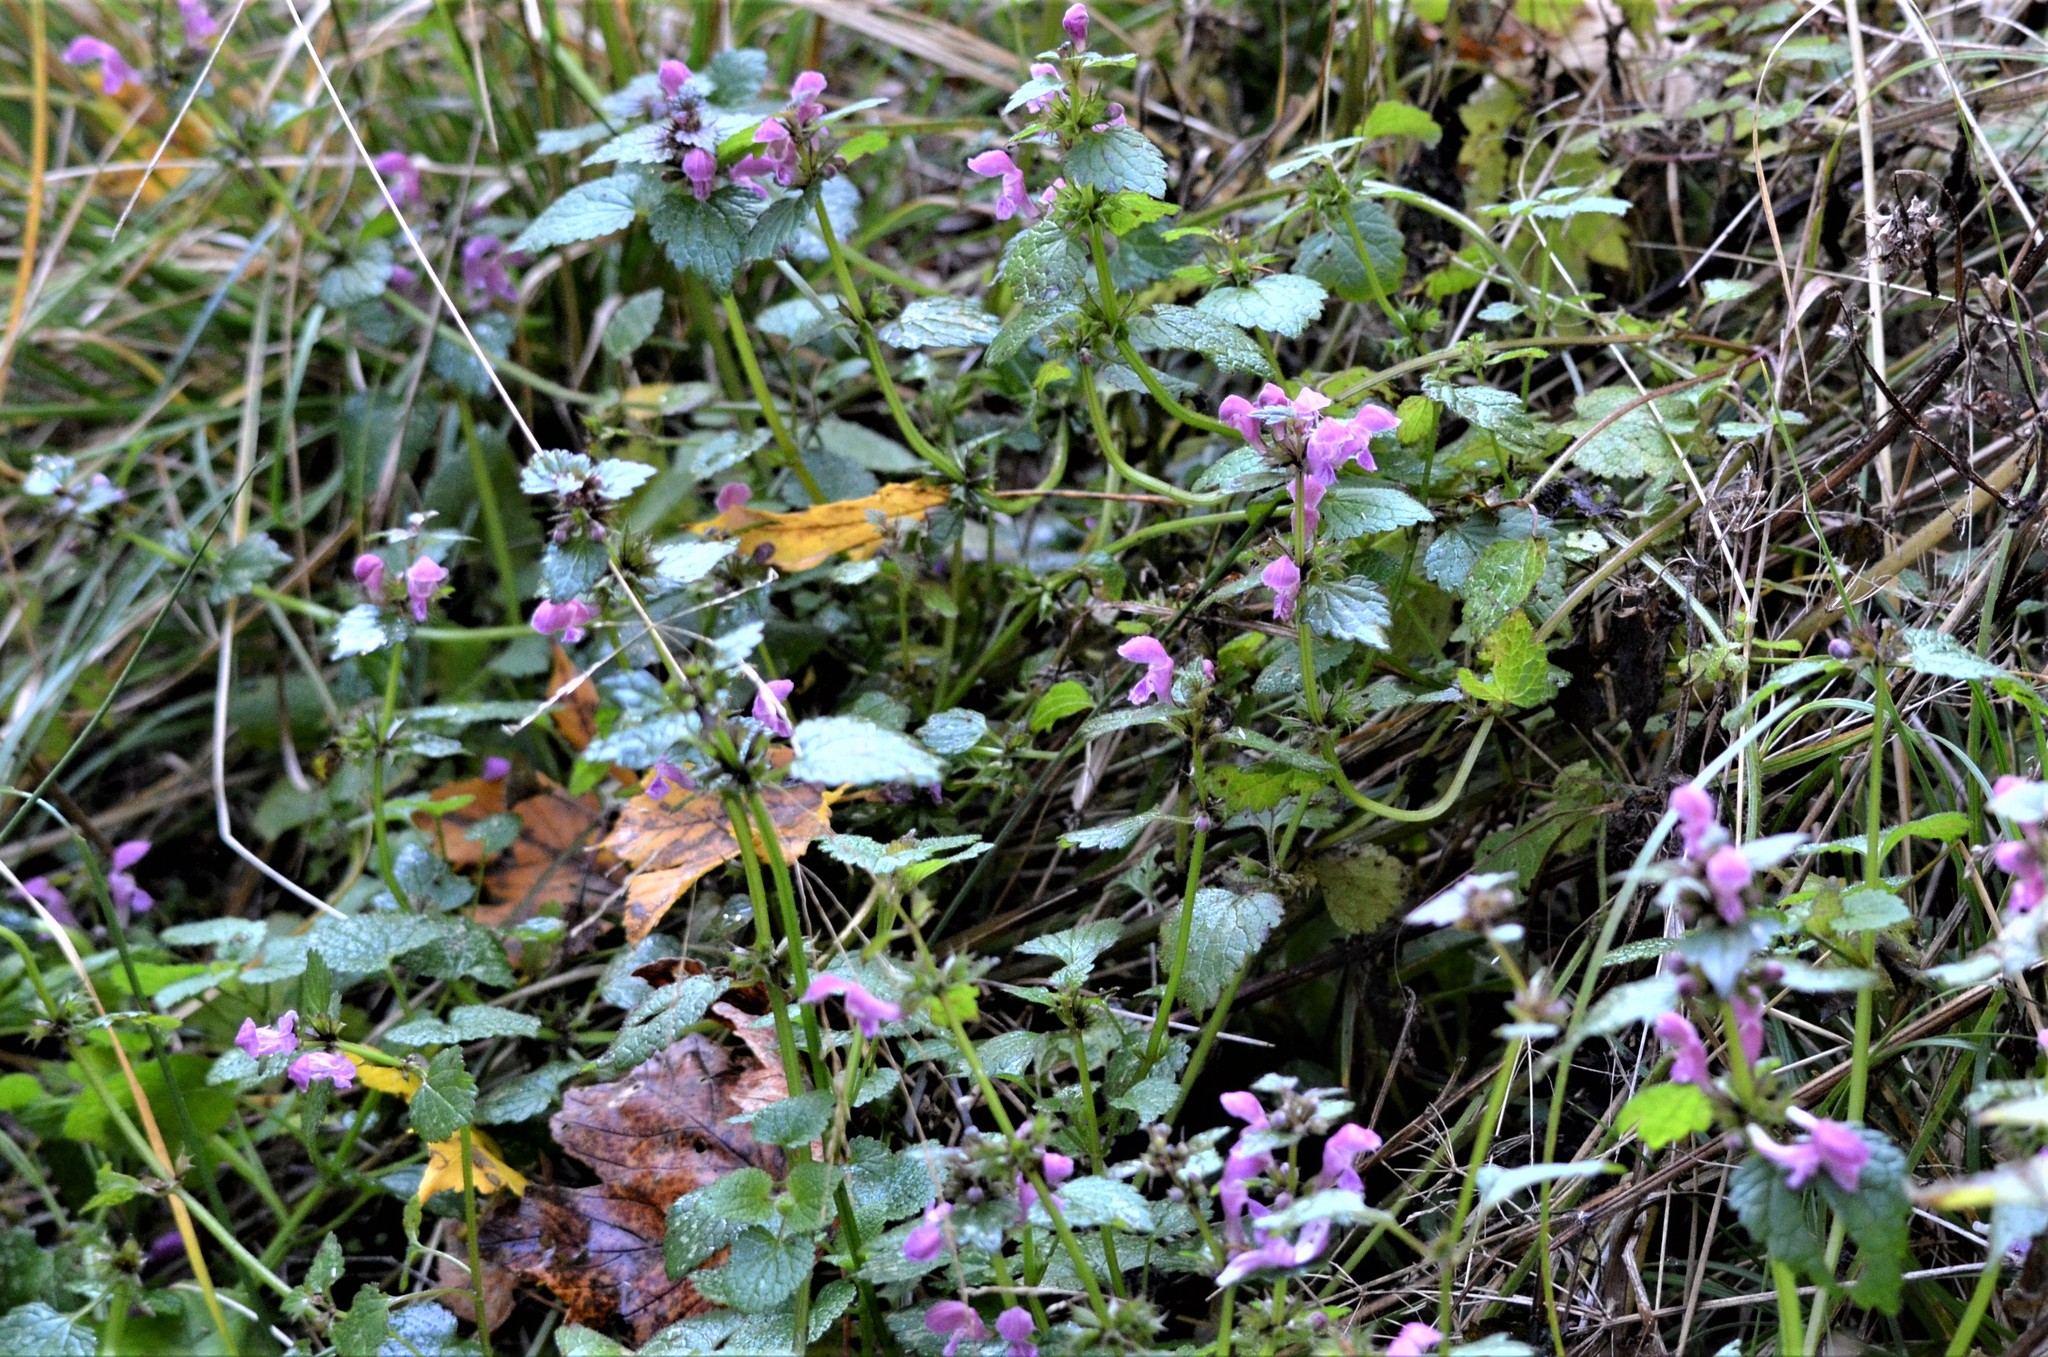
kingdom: Plantae
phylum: Tracheophyta
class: Magnoliopsida
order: Lamiales
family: Lamiaceae
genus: Lamium
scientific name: Lamium maculatum
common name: Spotted dead-nettle
